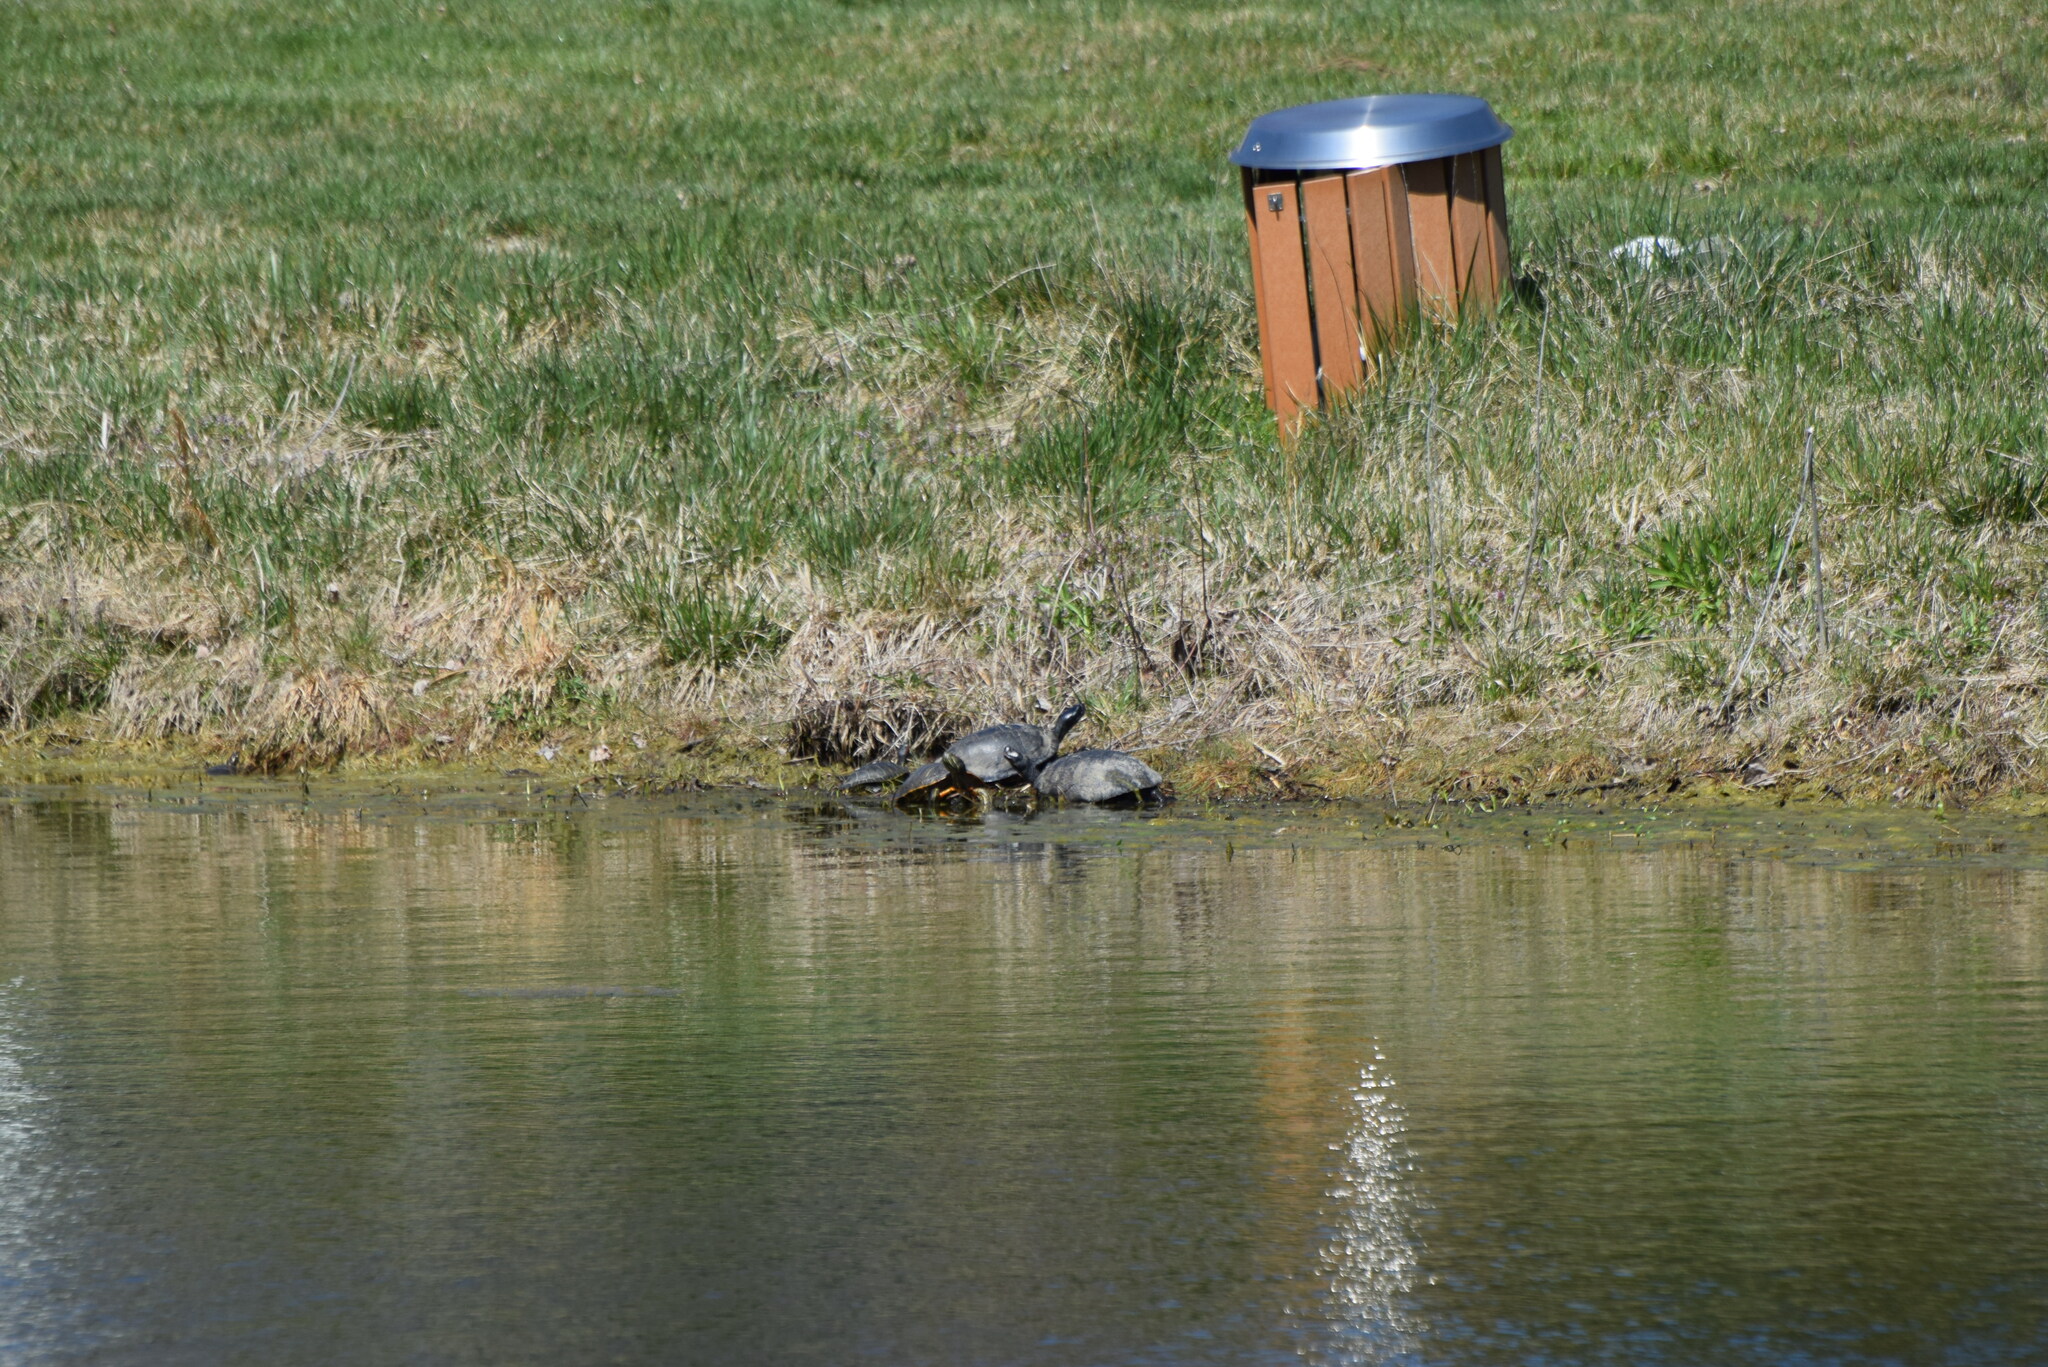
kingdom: Animalia
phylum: Chordata
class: Testudines
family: Emydidae
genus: Pseudemys
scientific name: Pseudemys rubriventris
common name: American red-bellied turtle
